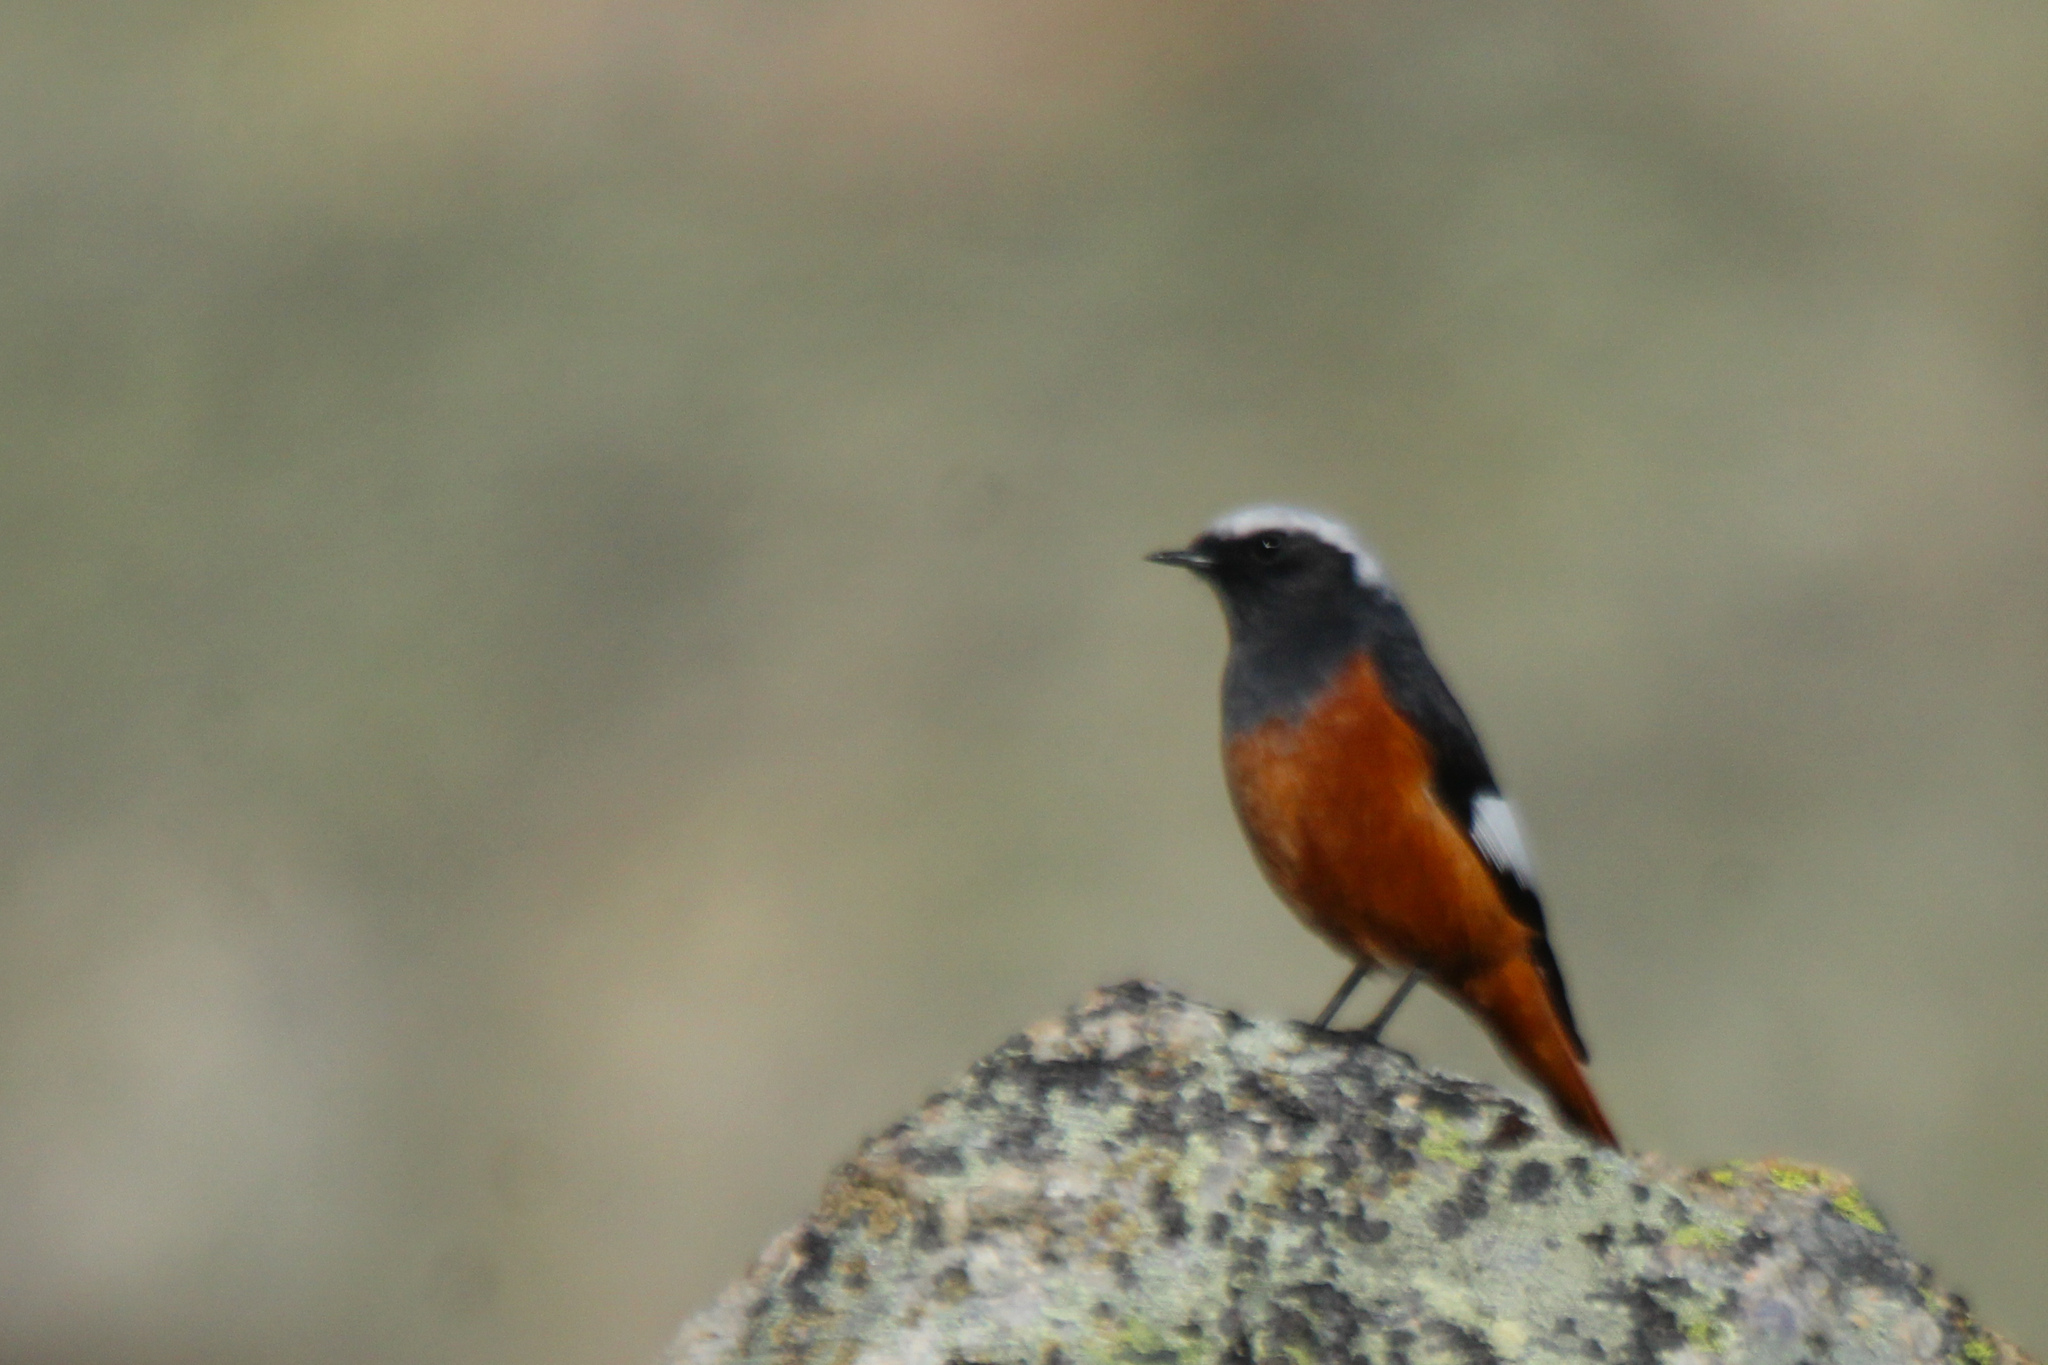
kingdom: Animalia
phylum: Chordata
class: Aves
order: Passeriformes
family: Muscicapidae
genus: Phoenicurus
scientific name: Phoenicurus erythrogastrus
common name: Güldenstädt's redstart
